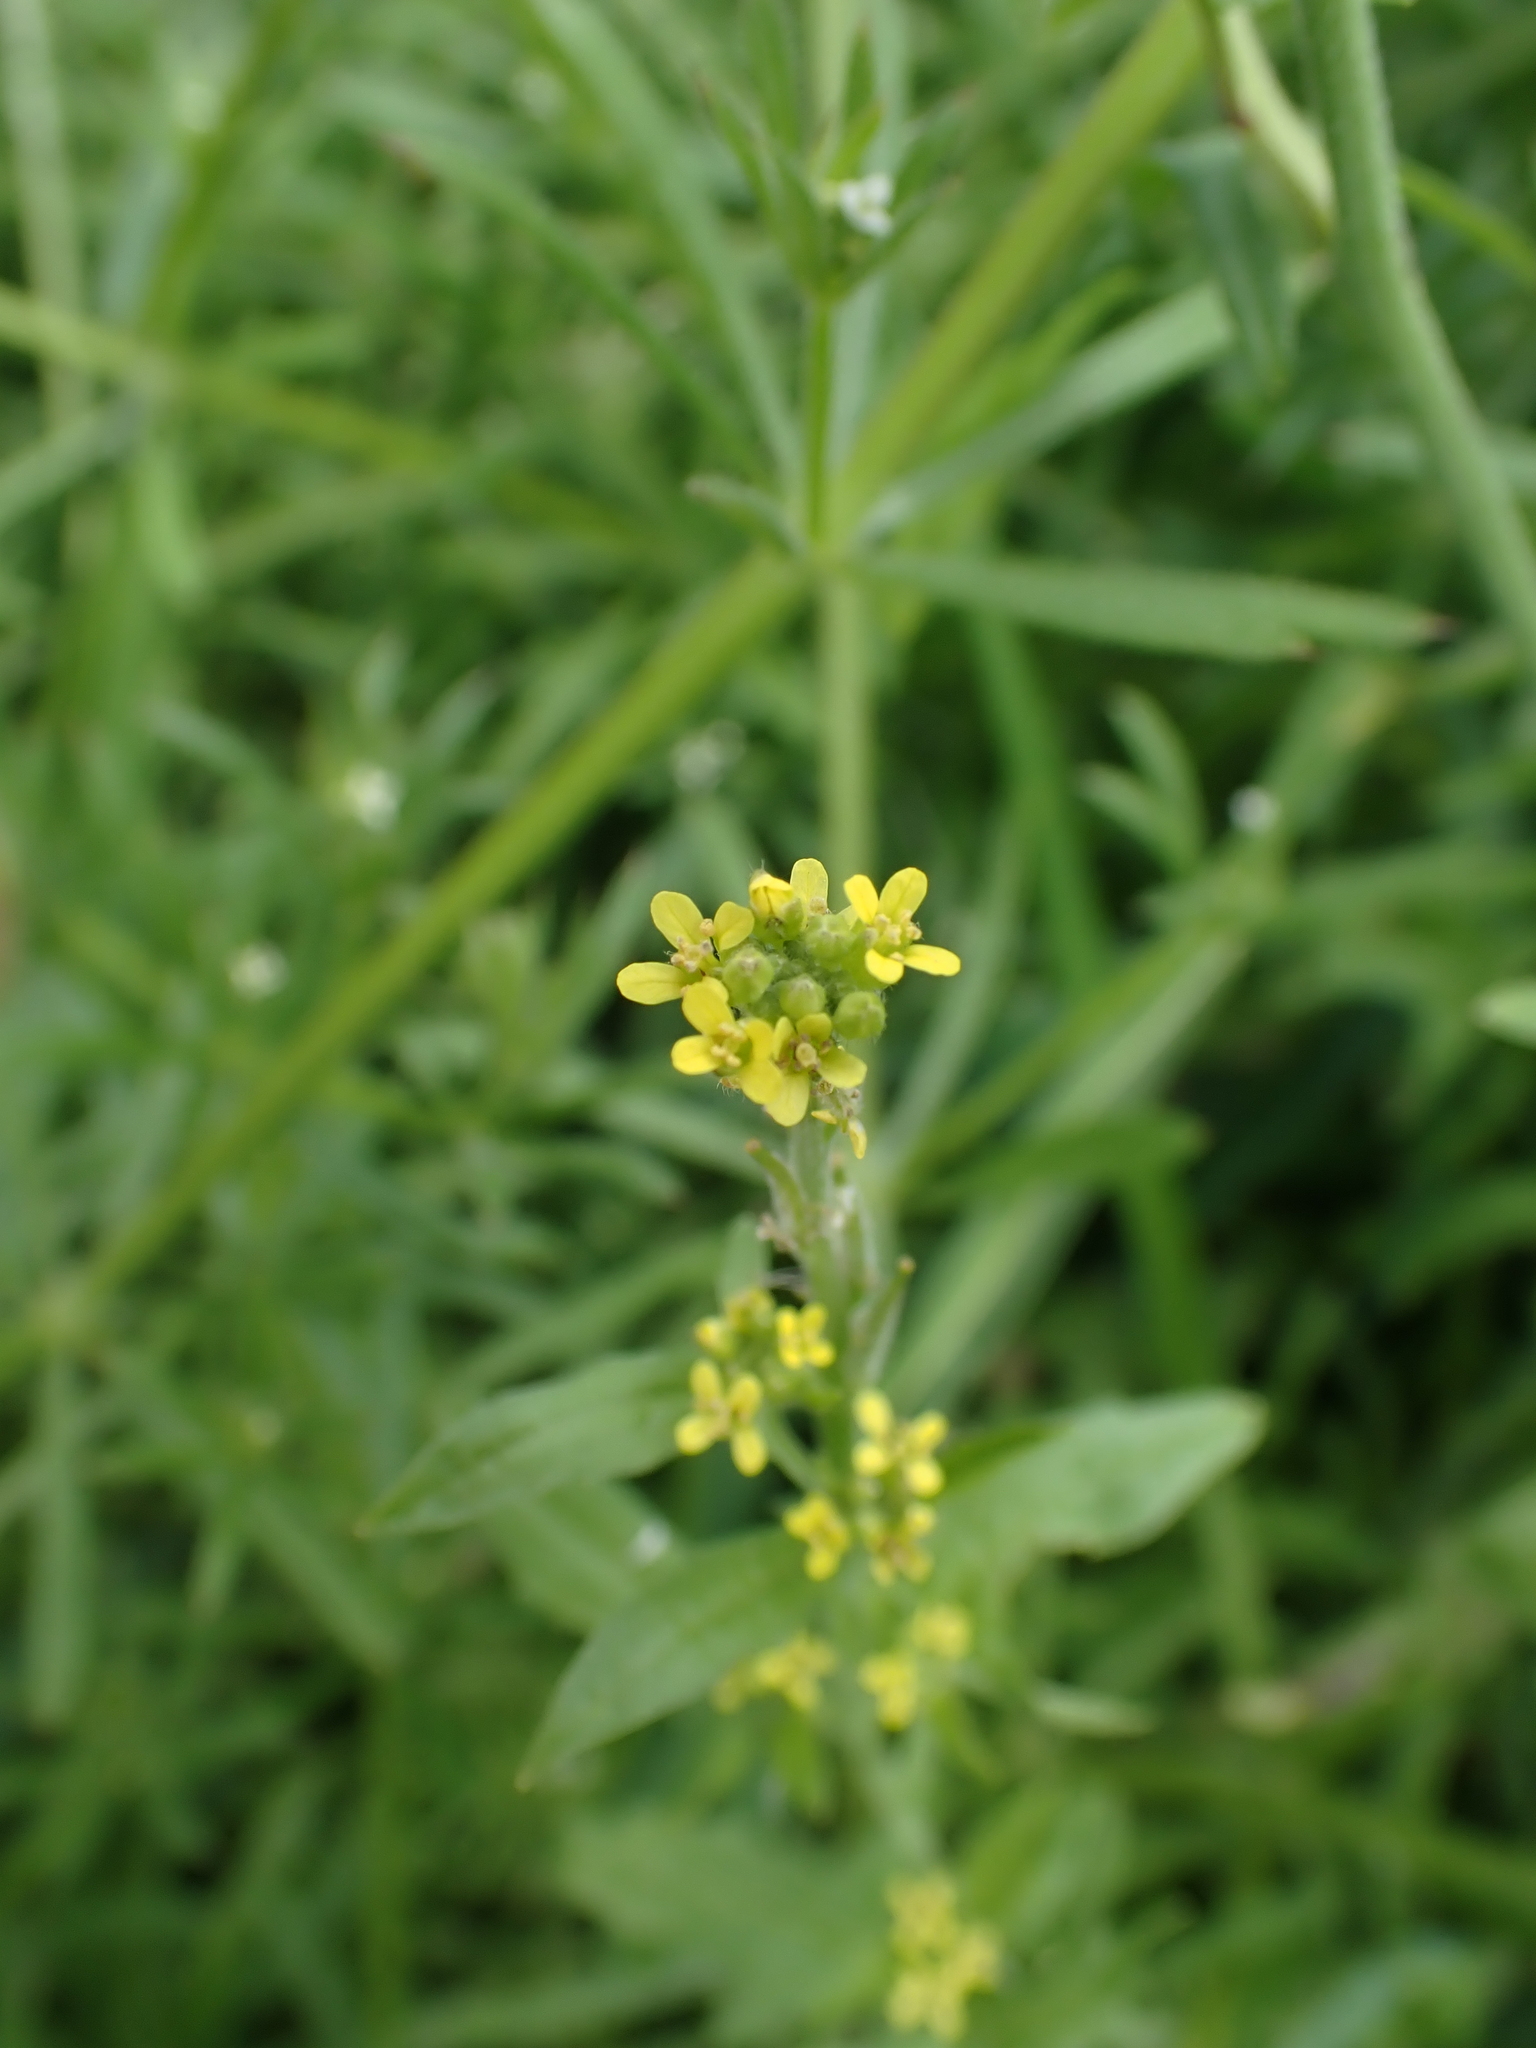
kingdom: Plantae
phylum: Tracheophyta
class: Magnoliopsida
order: Brassicales
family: Brassicaceae
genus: Sisymbrium
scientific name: Sisymbrium officinale
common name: Hedge mustard
